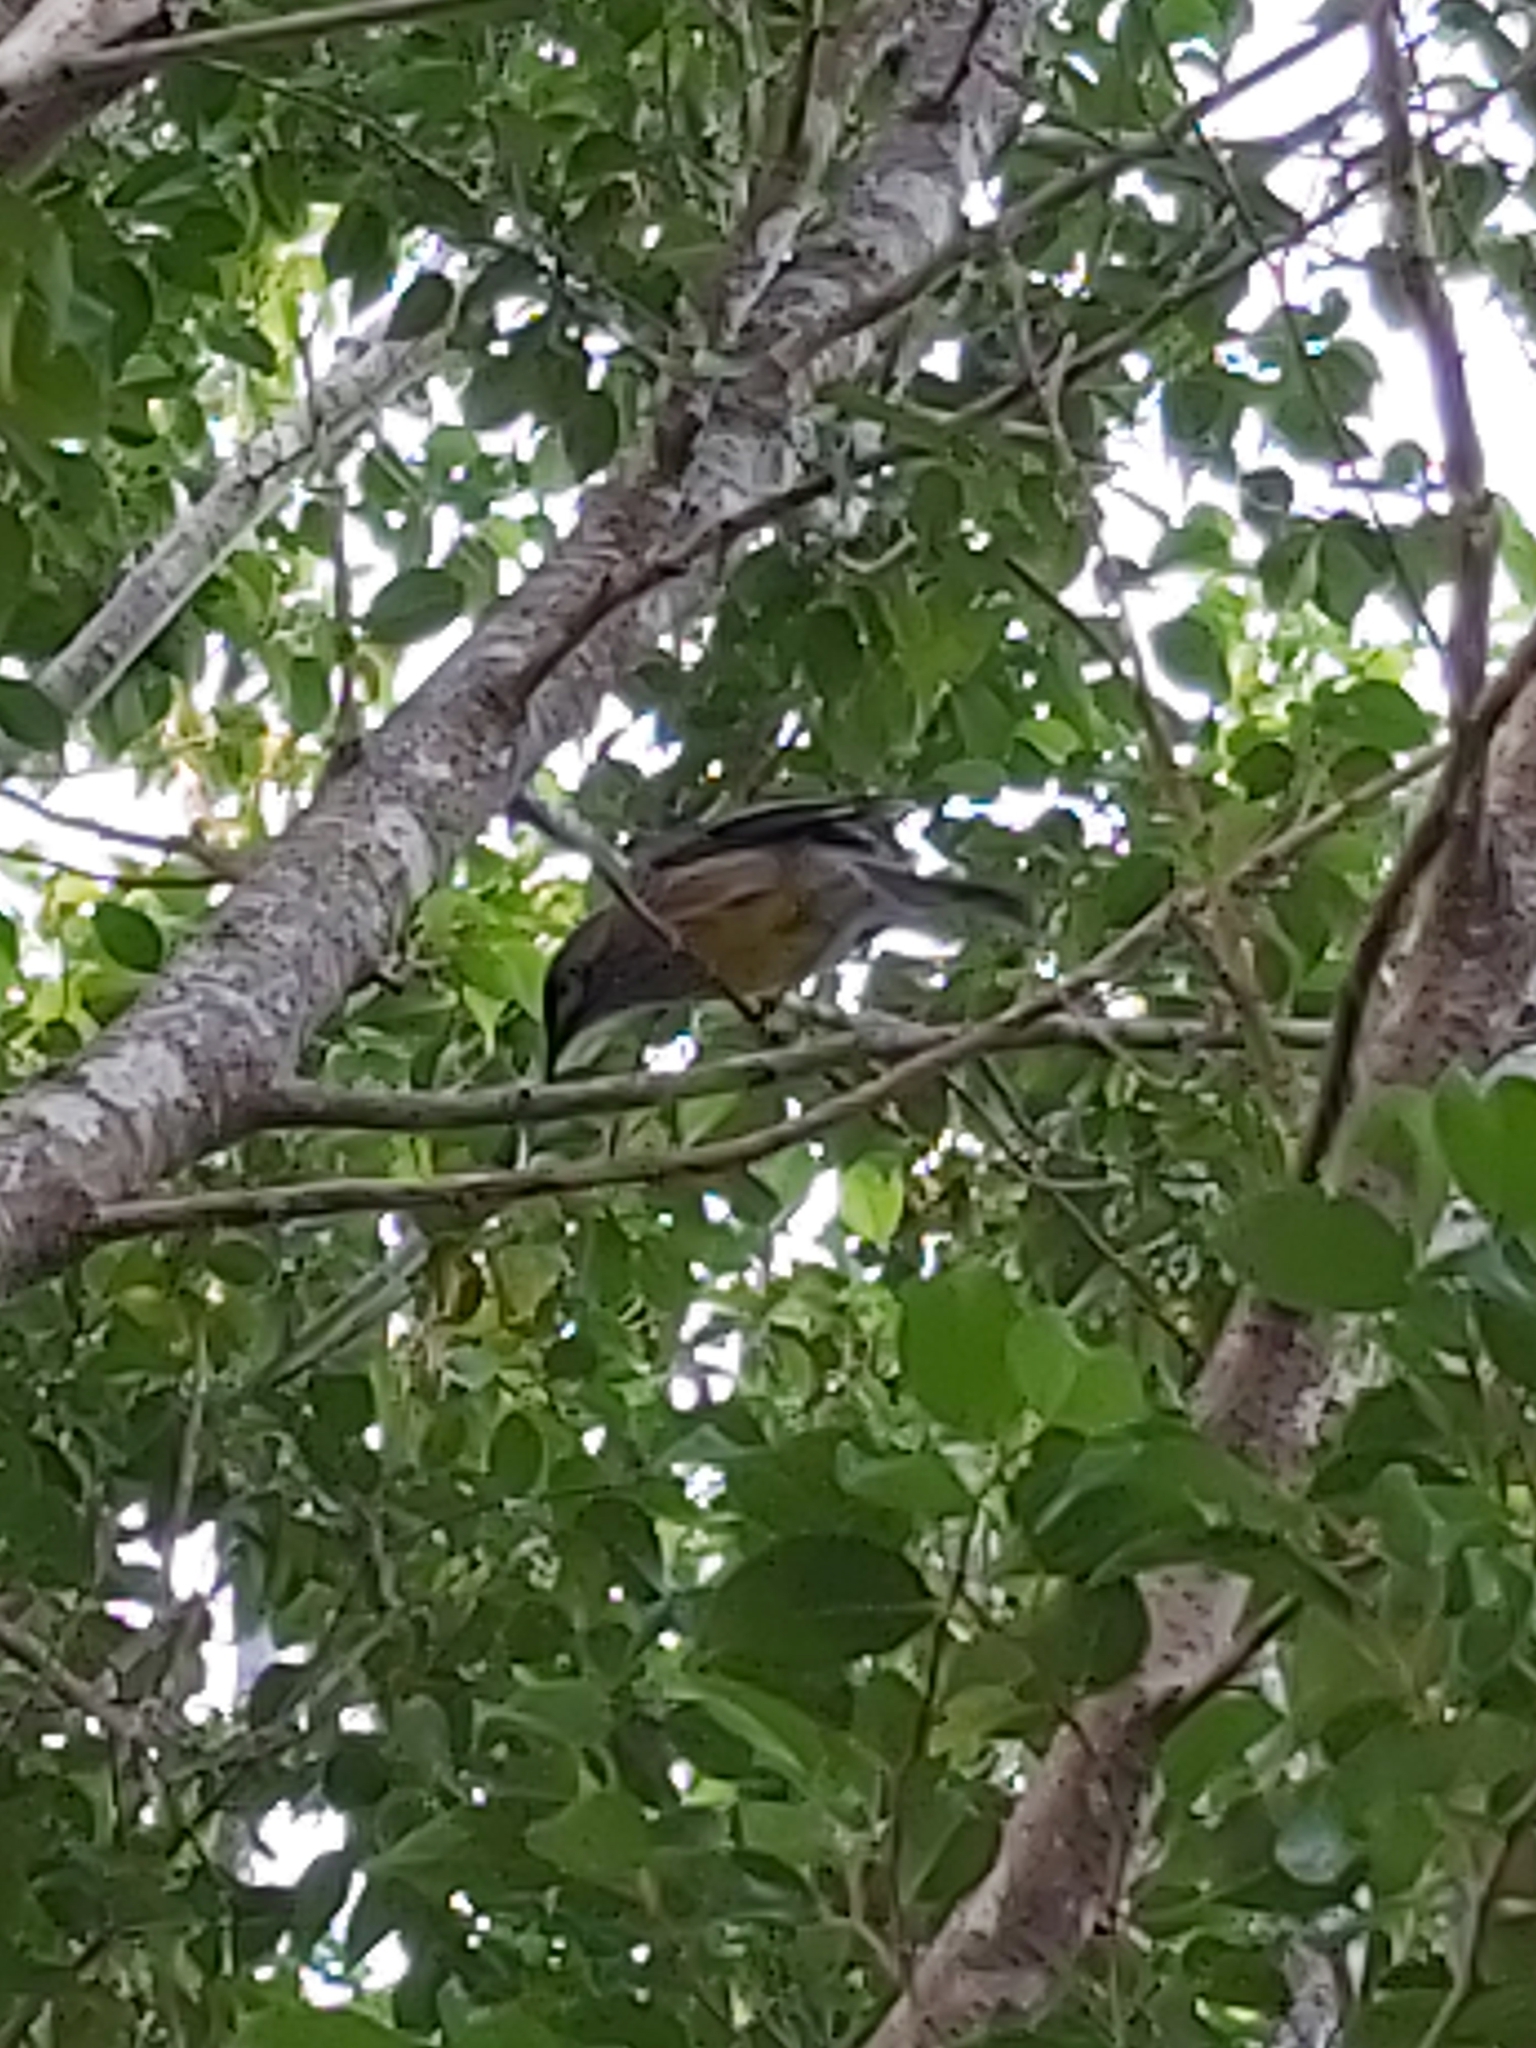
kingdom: Animalia
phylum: Chordata
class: Aves
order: Passeriformes
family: Meliphagidae
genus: Anthochaera
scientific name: Anthochaera carunculata
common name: Red wattlebird
